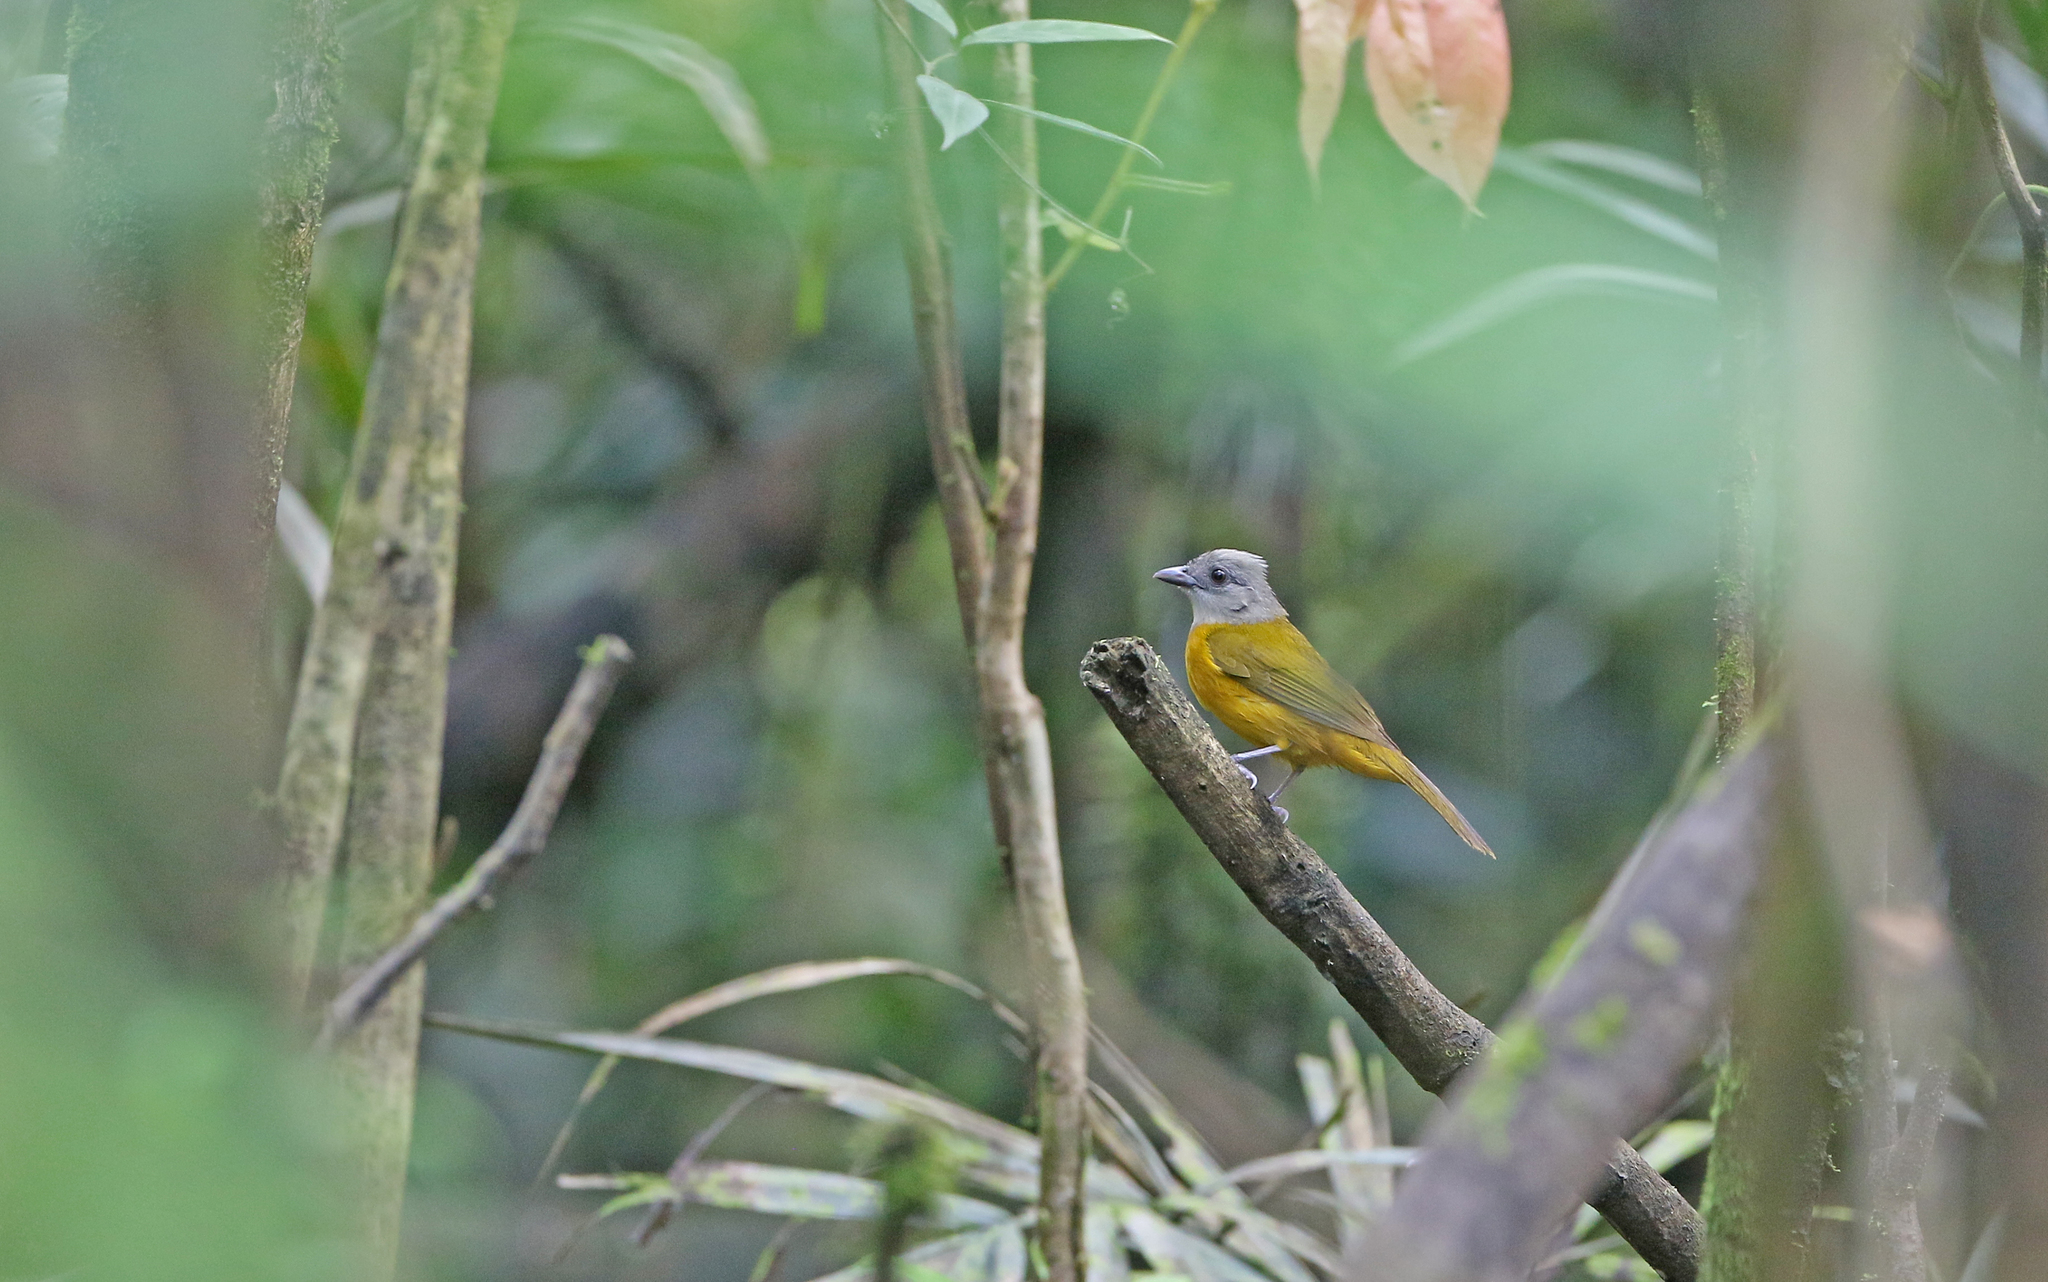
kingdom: Animalia
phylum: Chordata
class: Aves
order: Passeriformes
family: Thraupidae
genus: Eucometis
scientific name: Eucometis penicillata
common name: Grey-headed tanager
